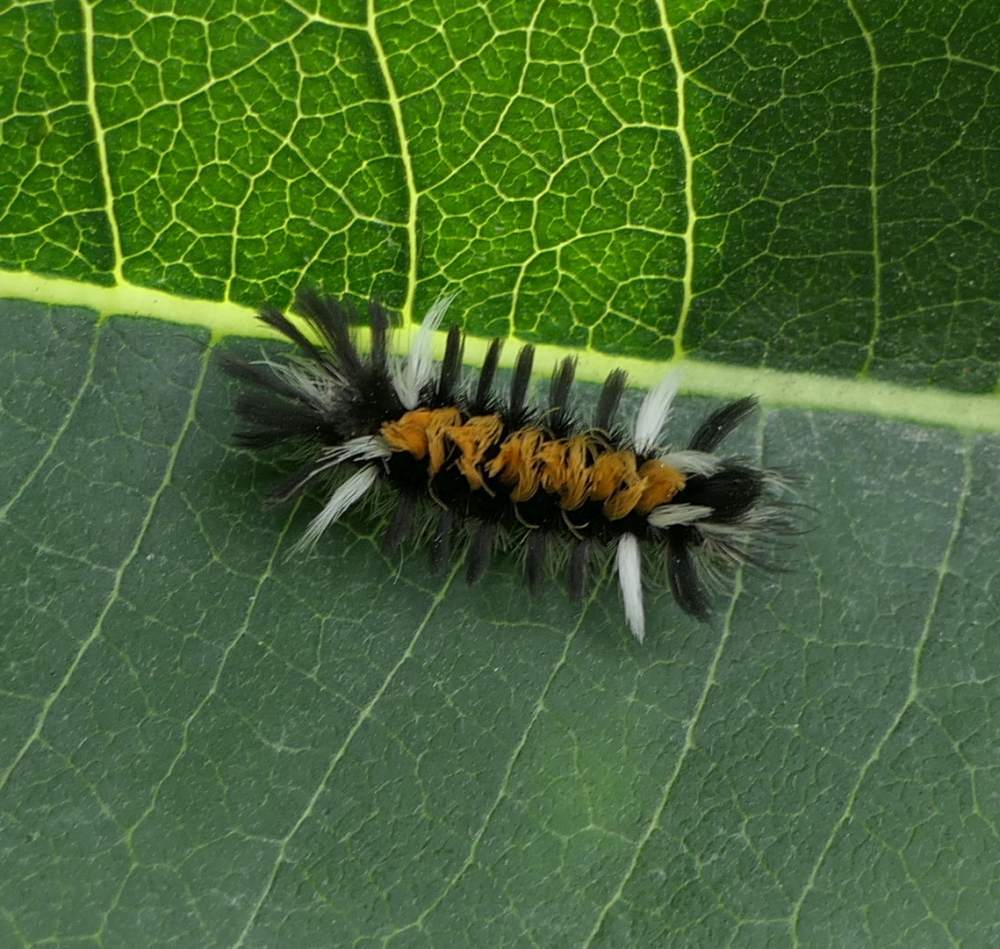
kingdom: Animalia
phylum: Arthropoda
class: Insecta
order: Lepidoptera
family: Erebidae
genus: Euchaetes
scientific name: Euchaetes egle
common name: Milkweed tussock moth
